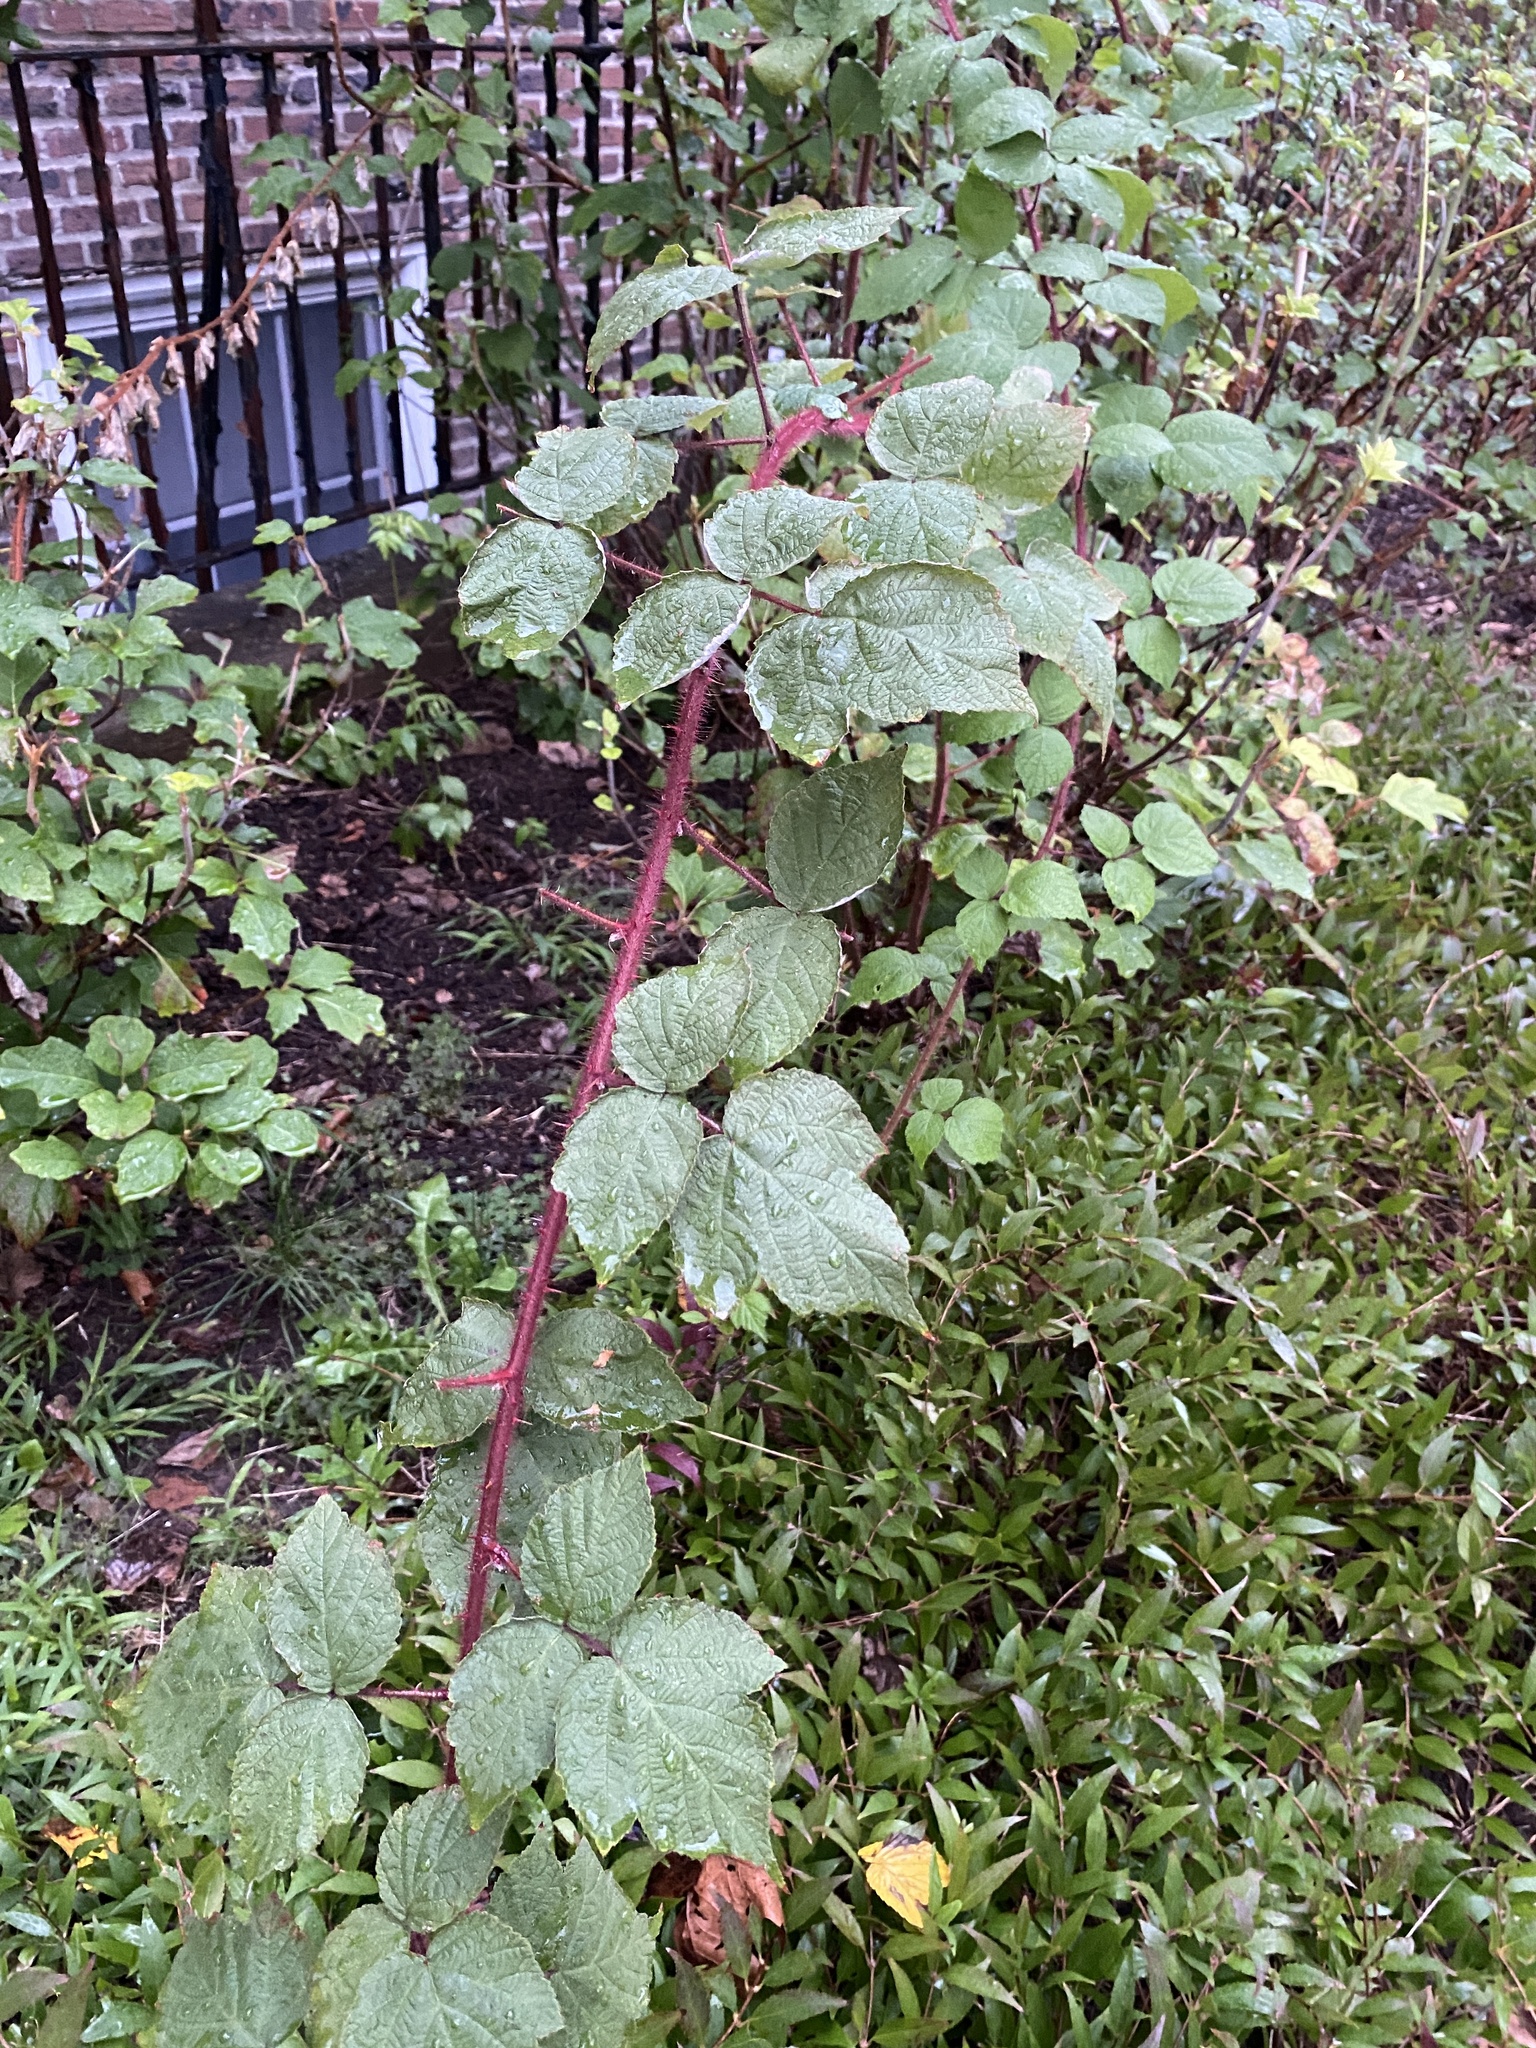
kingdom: Plantae
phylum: Tracheophyta
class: Magnoliopsida
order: Rosales
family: Rosaceae
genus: Rubus
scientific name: Rubus phoenicolasius
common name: Japanese wineberry
